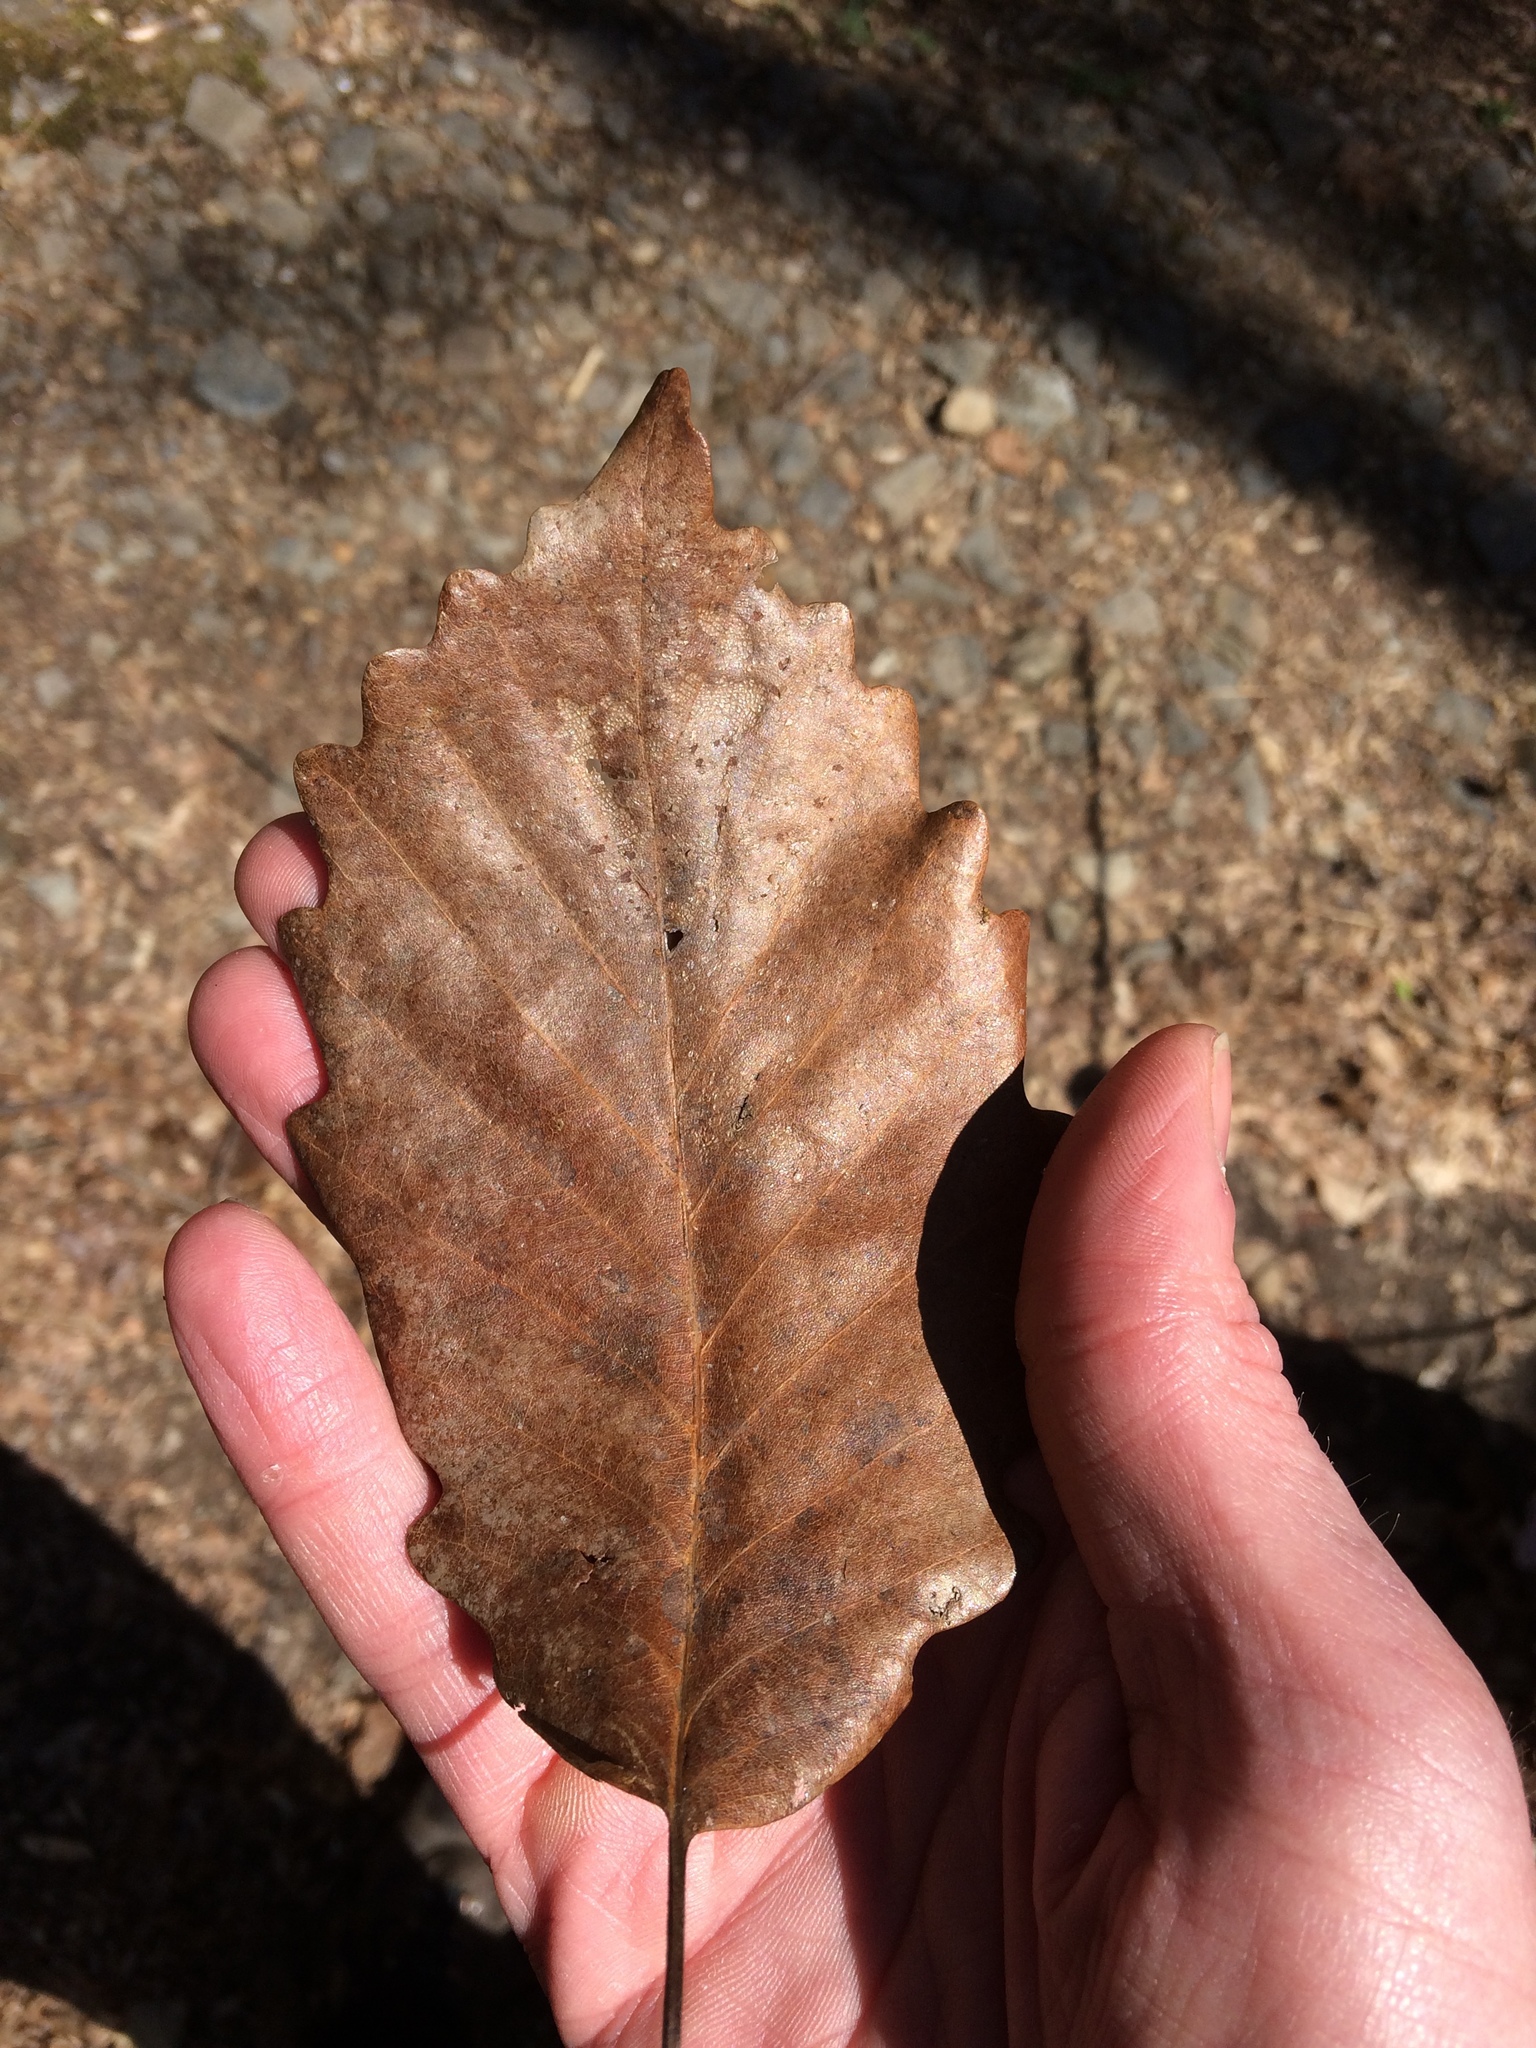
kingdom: Plantae
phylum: Tracheophyta
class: Magnoliopsida
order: Fagales
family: Fagaceae
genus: Quercus
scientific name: Quercus montana
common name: Chestnut oak
